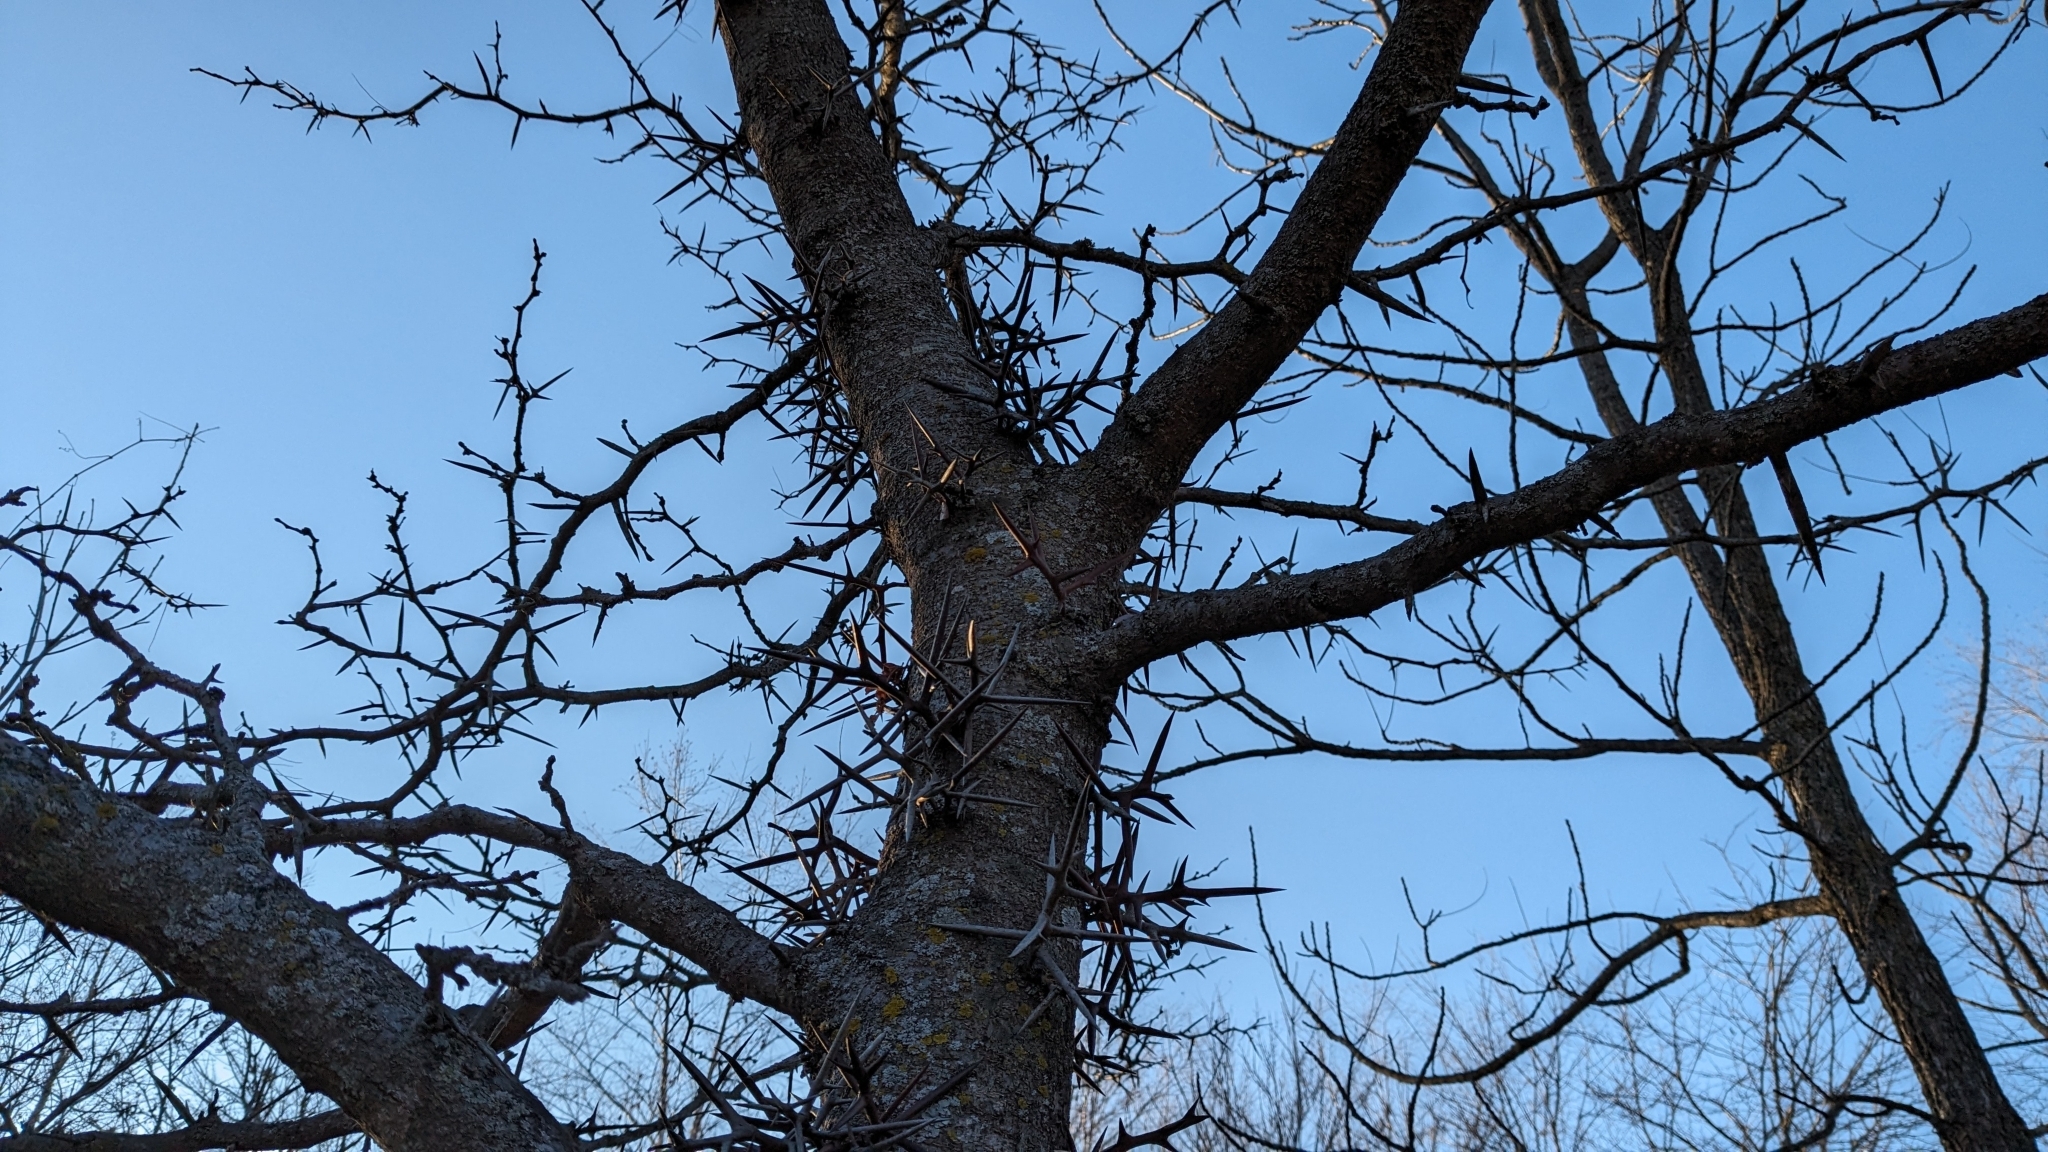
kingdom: Plantae
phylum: Tracheophyta
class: Magnoliopsida
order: Fabales
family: Fabaceae
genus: Gleditsia
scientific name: Gleditsia triacanthos
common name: Common honeylocust
